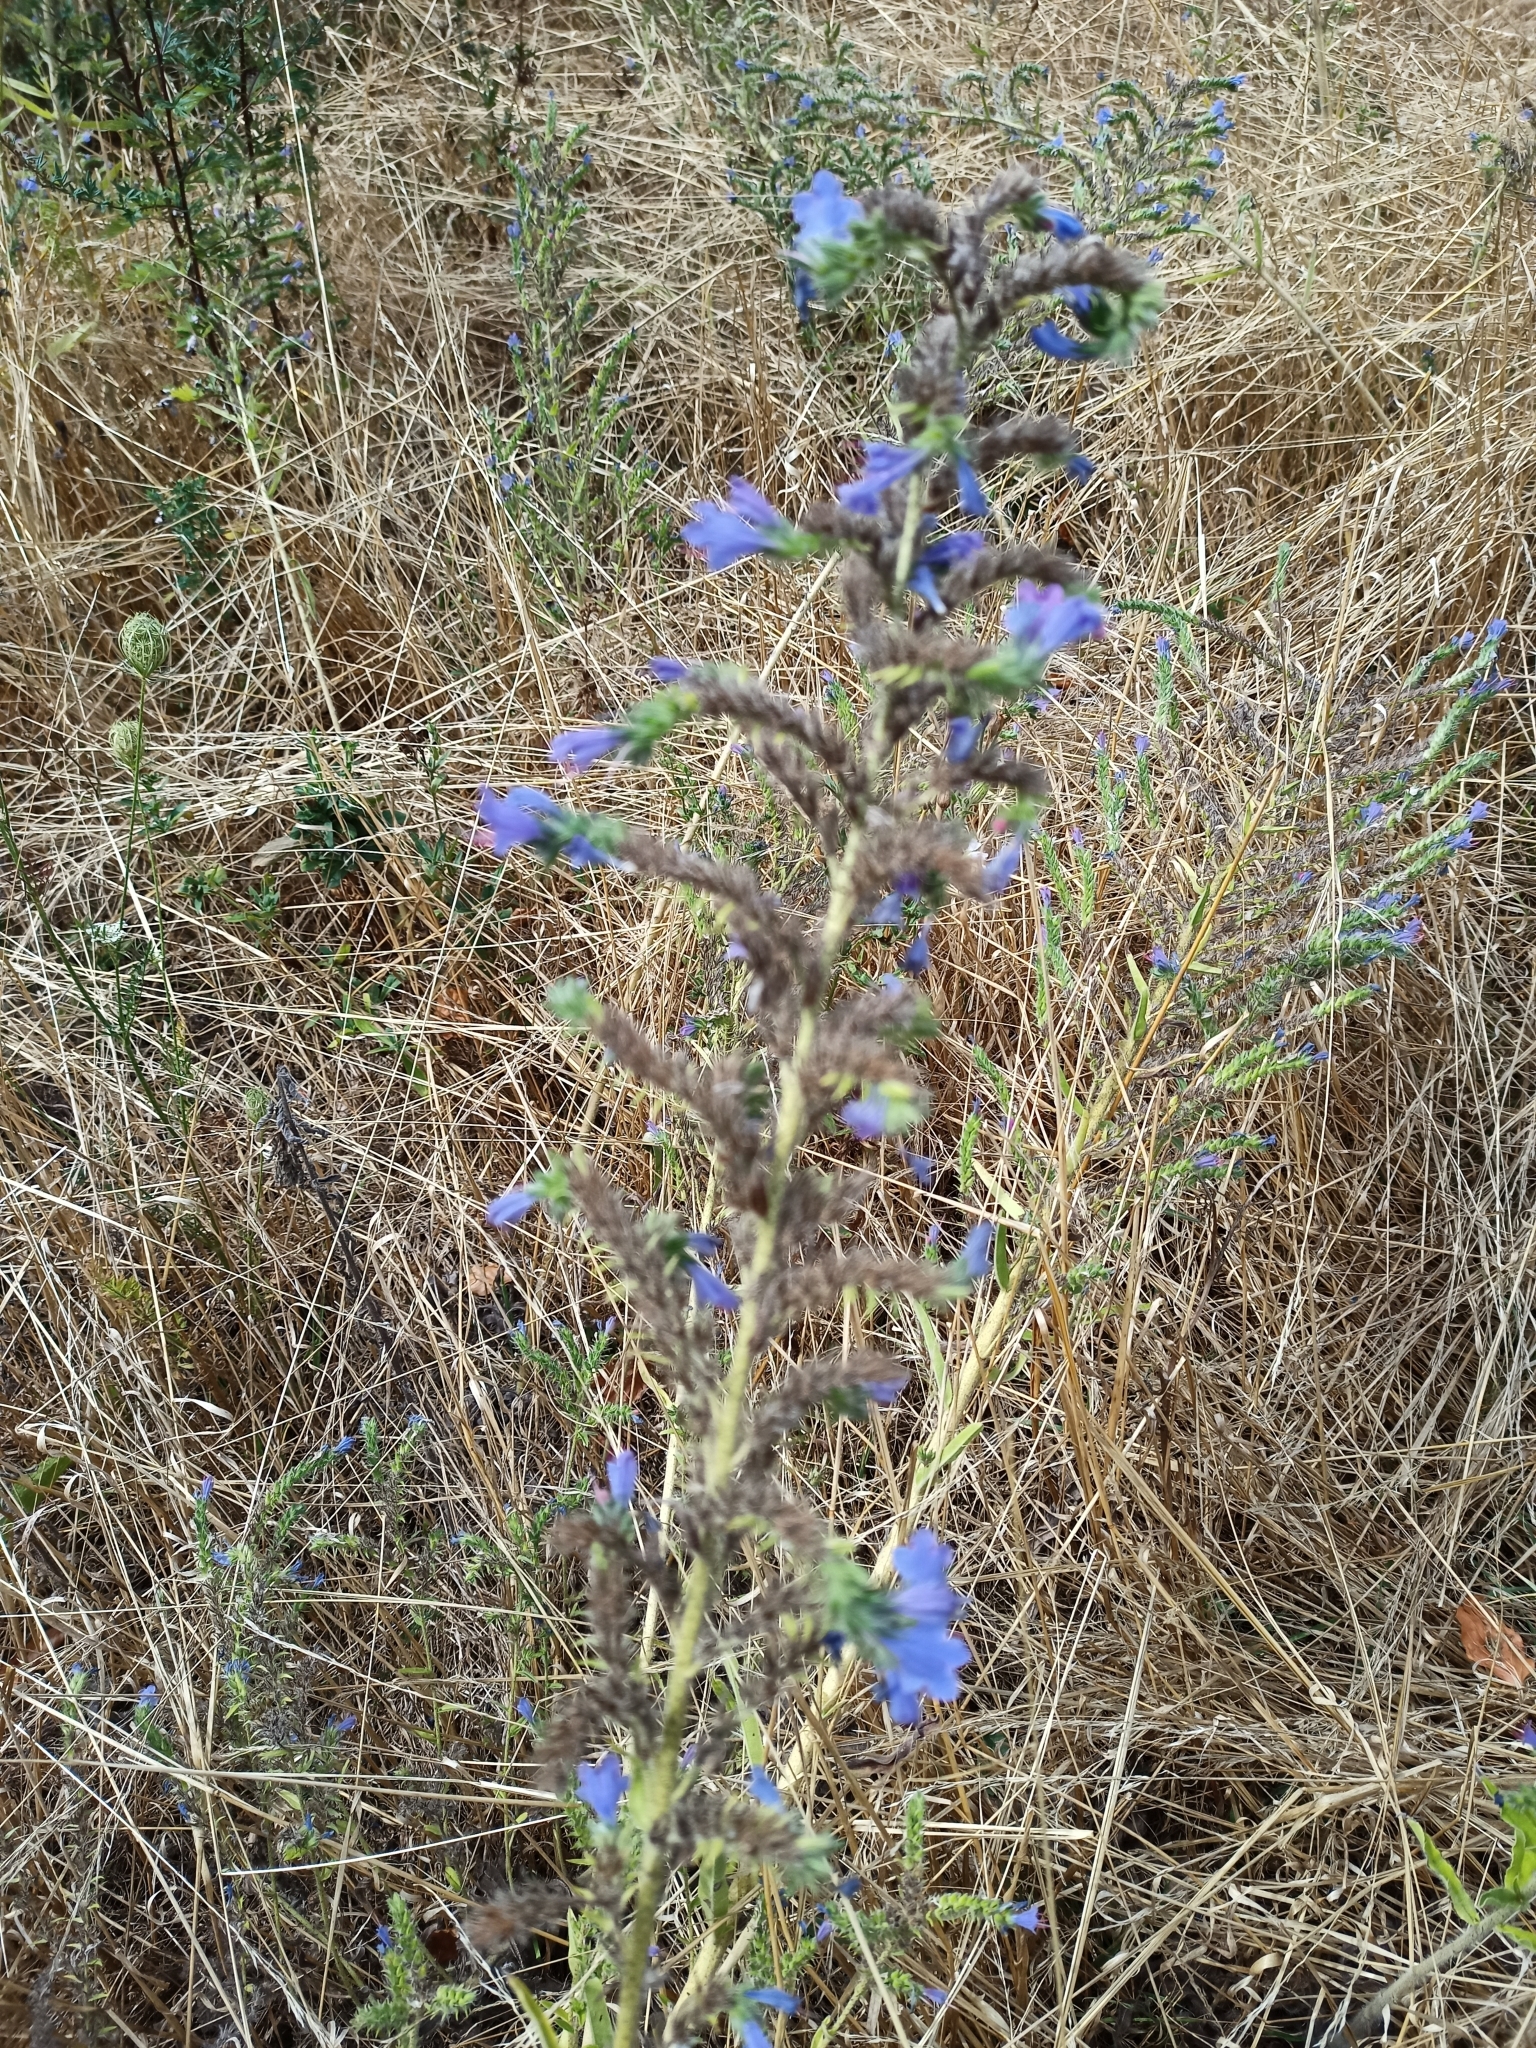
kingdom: Plantae
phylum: Tracheophyta
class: Magnoliopsida
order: Boraginales
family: Boraginaceae
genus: Echium
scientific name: Echium vulgare
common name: Common viper's bugloss
